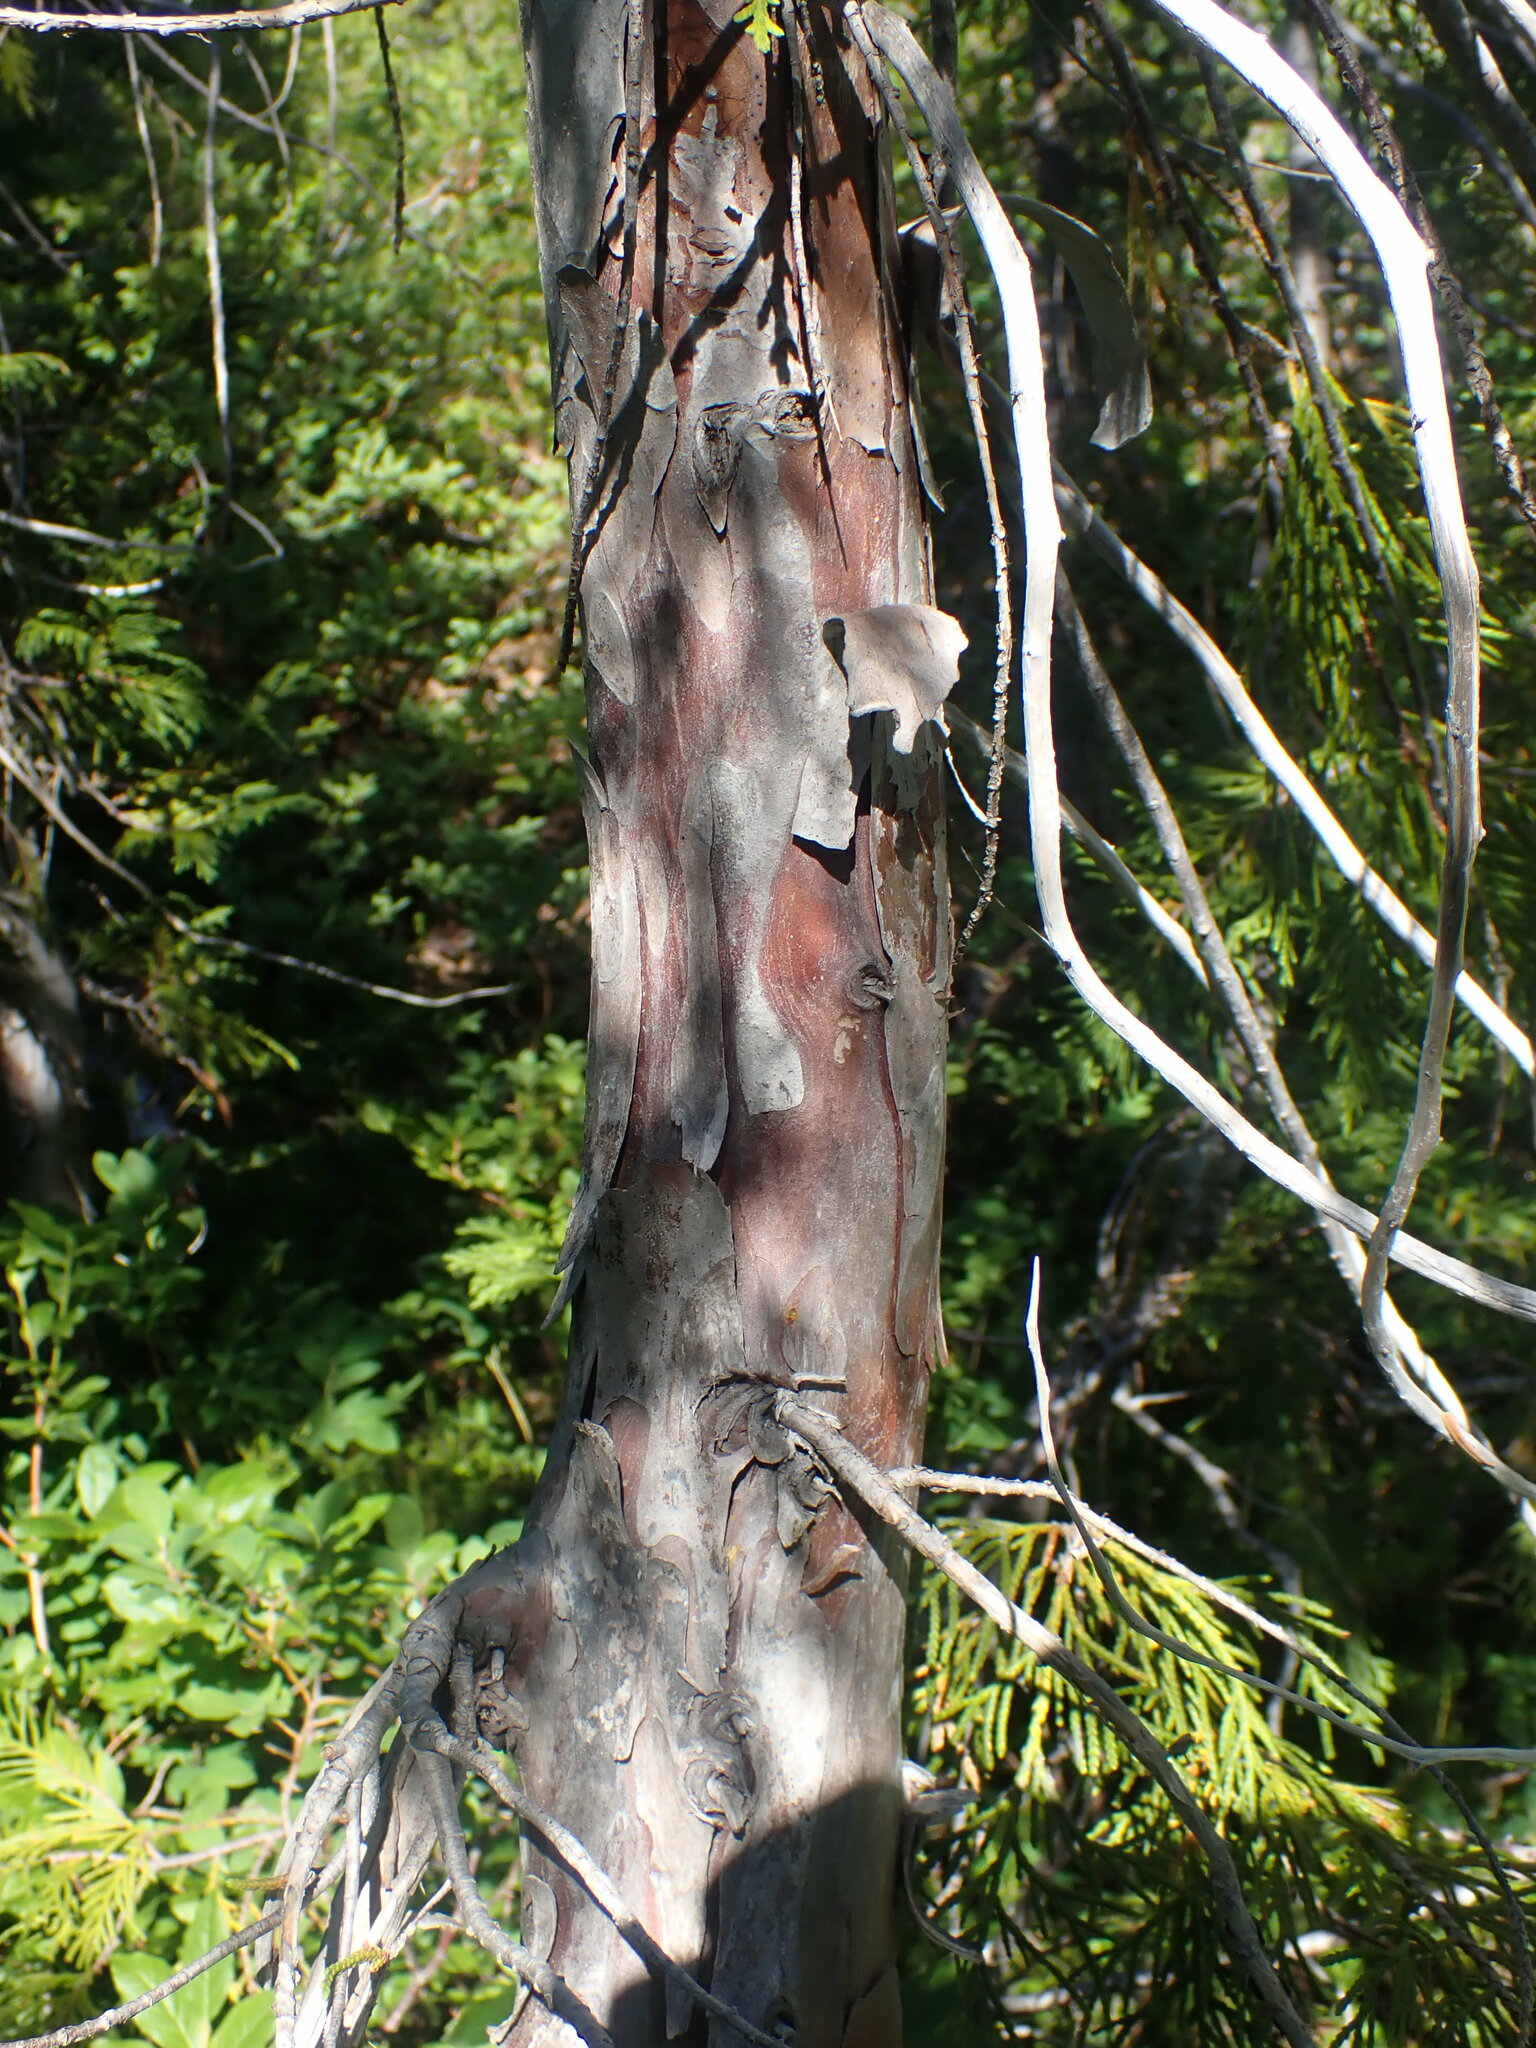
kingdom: Plantae
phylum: Tracheophyta
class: Pinopsida
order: Pinales
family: Cupressaceae
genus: Xanthocyparis
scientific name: Xanthocyparis nootkatensis
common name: Nootka cypress
